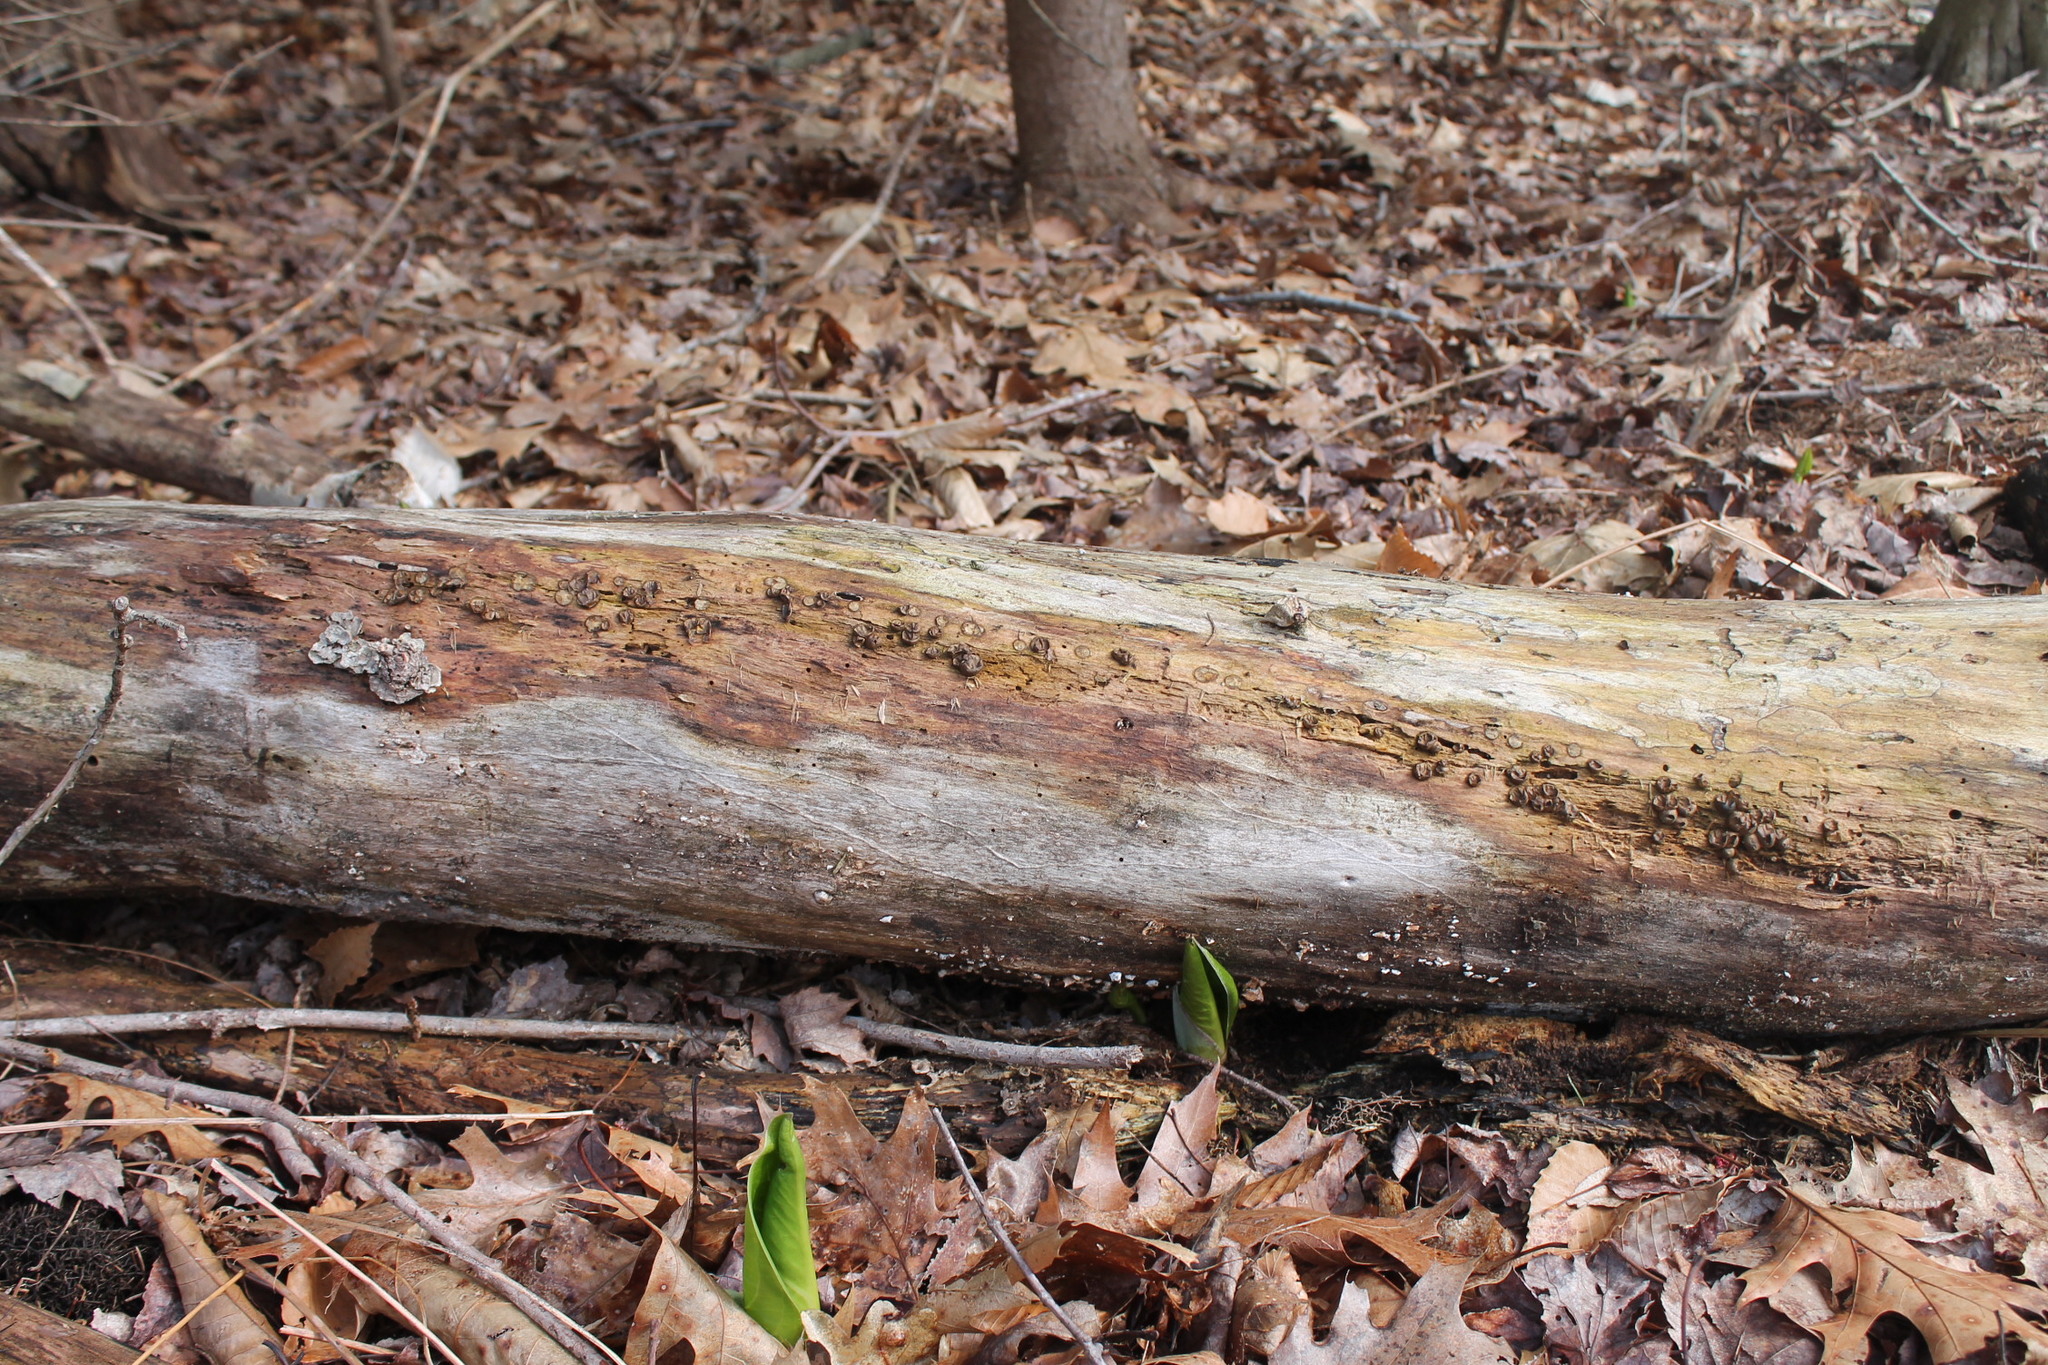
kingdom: Protozoa
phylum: Mycetozoa
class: Myxomycetes
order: Cribrariales
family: Tubiferaceae
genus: Lycogala
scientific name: Lycogala epidendrum
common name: Wolf's milk
